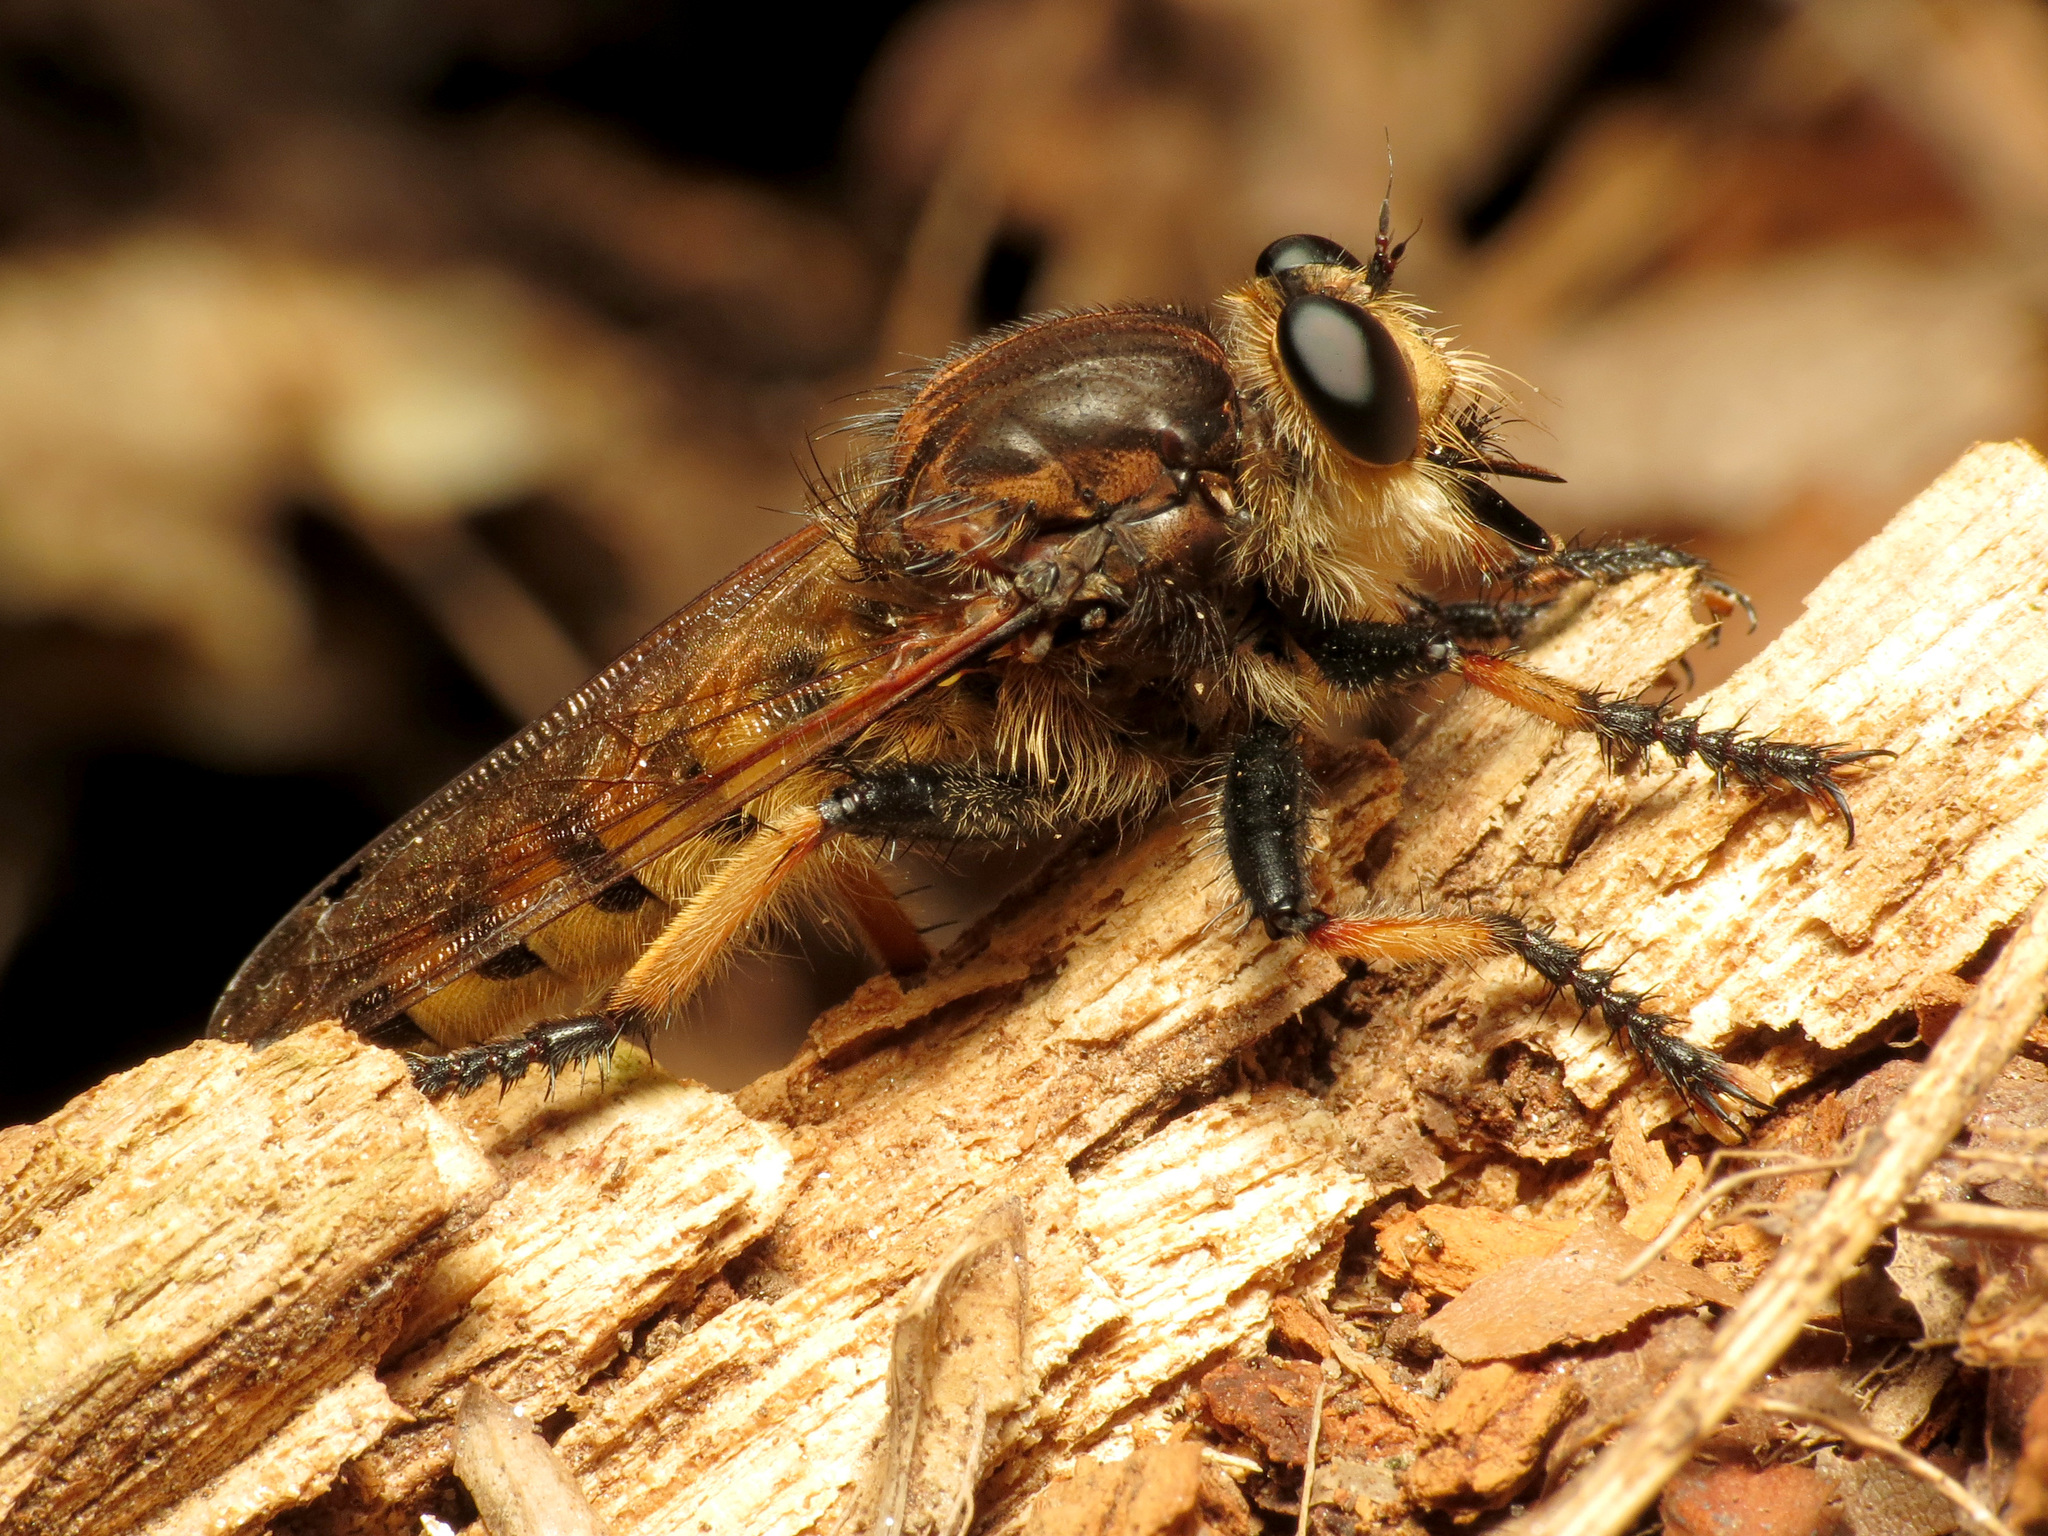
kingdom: Animalia
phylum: Arthropoda
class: Insecta
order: Diptera
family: Asilidae
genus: Promachus
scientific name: Promachus rufipes
